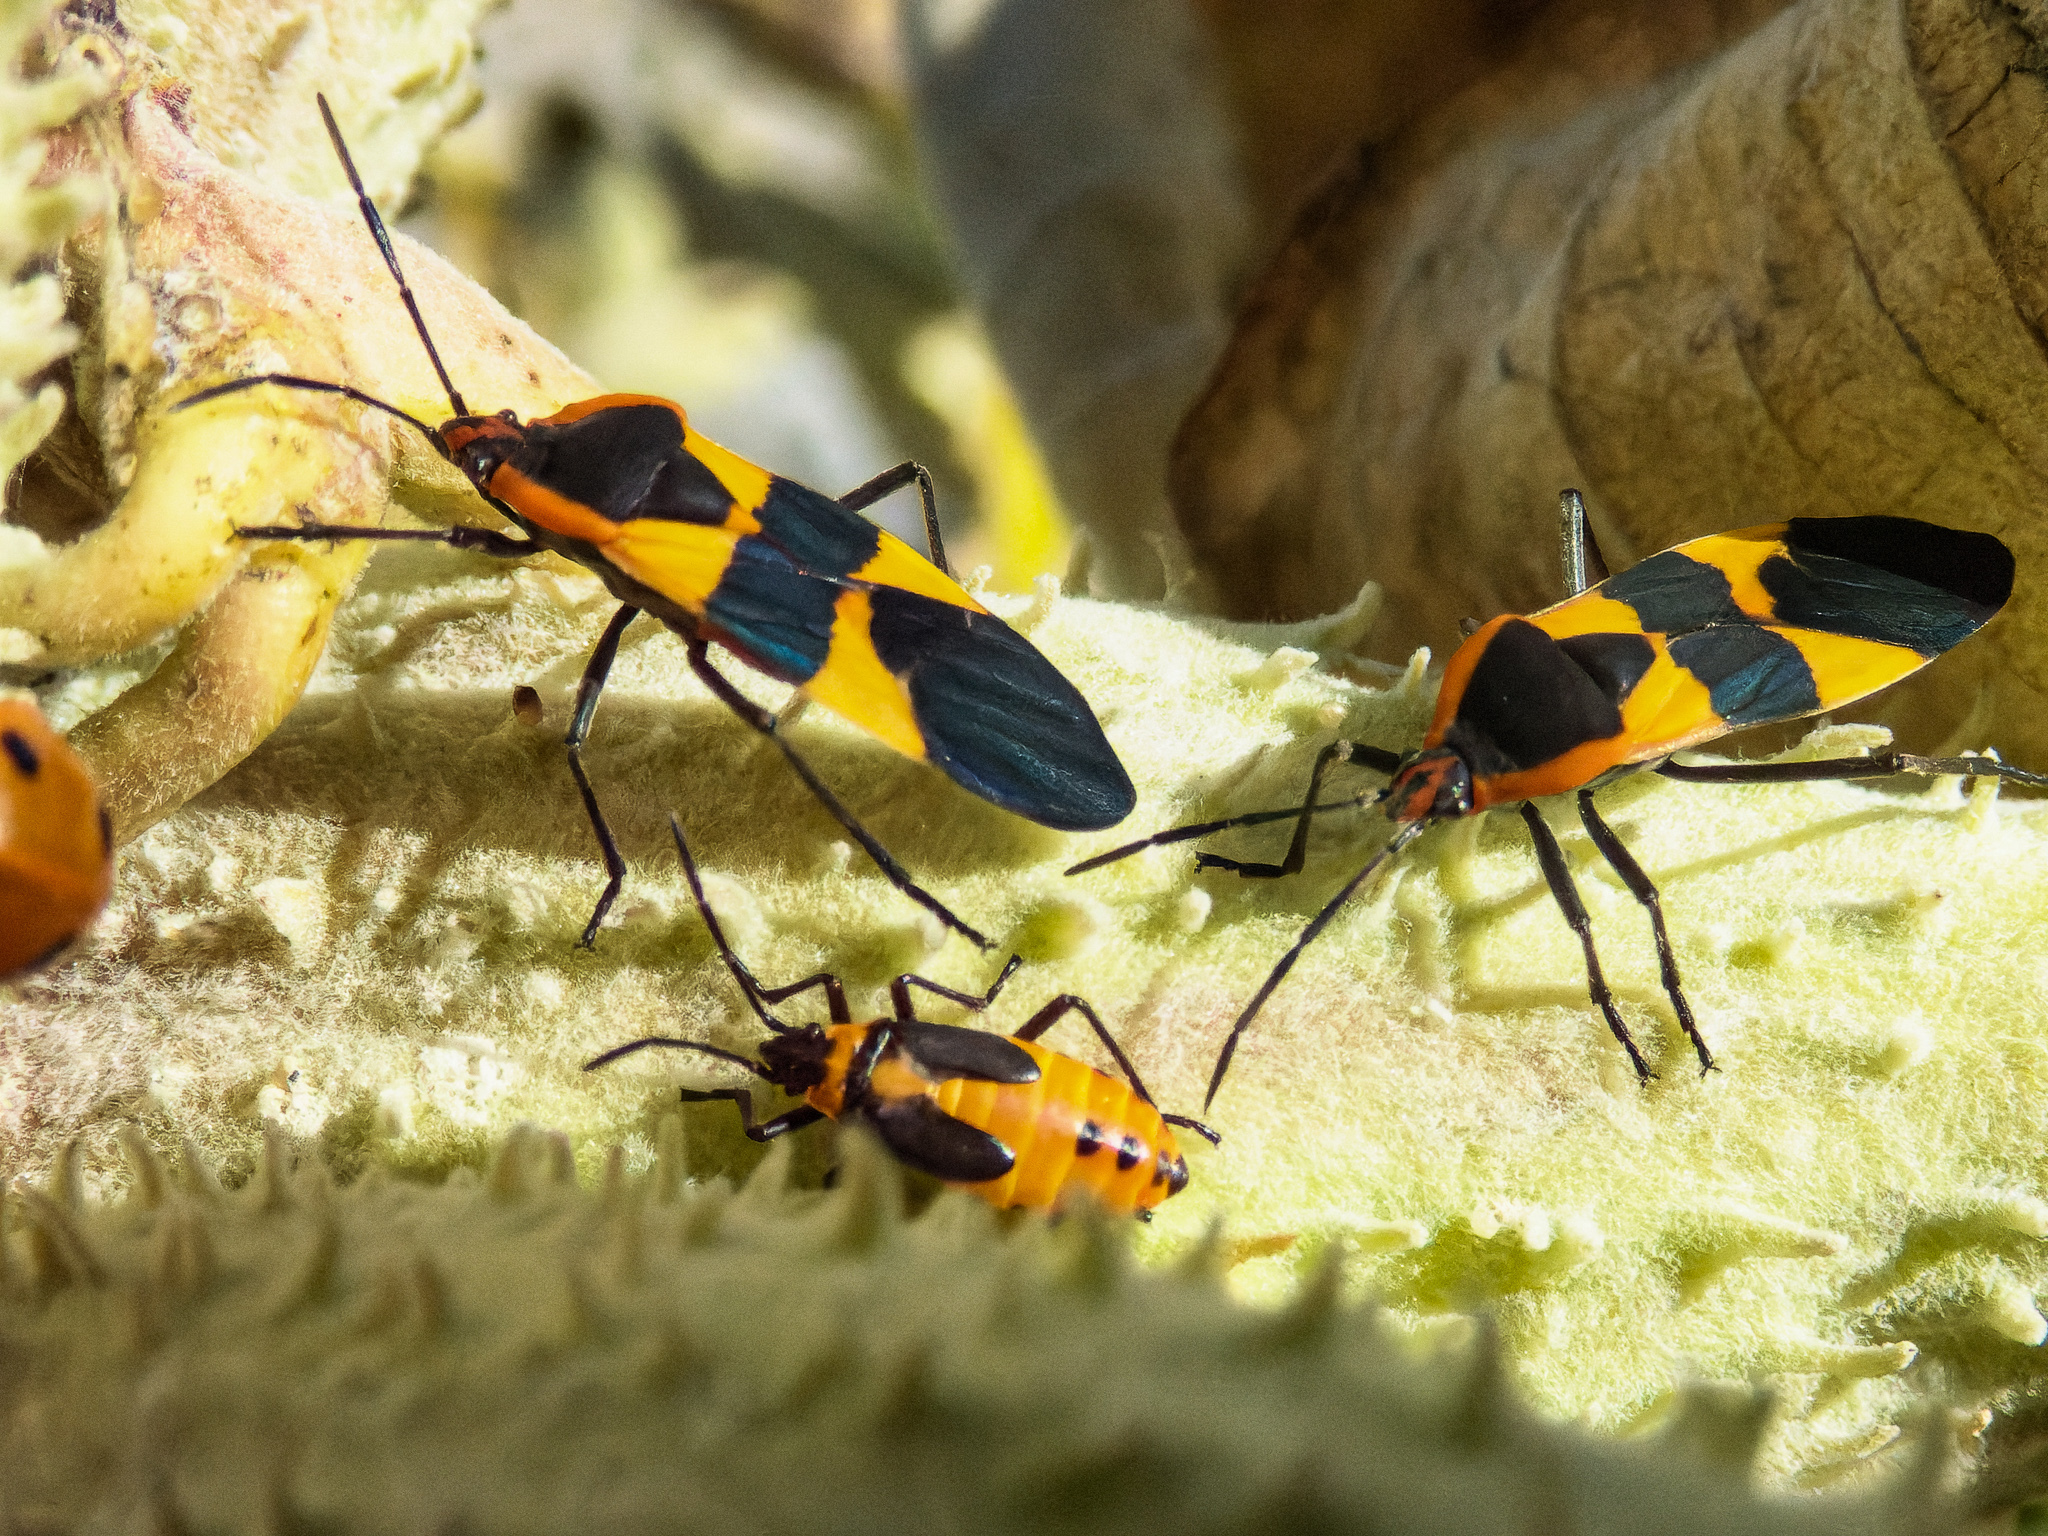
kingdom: Animalia
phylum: Arthropoda
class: Insecta
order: Hemiptera
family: Lygaeidae
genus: Oncopeltus
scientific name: Oncopeltus fasciatus
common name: Large milkweed bug
